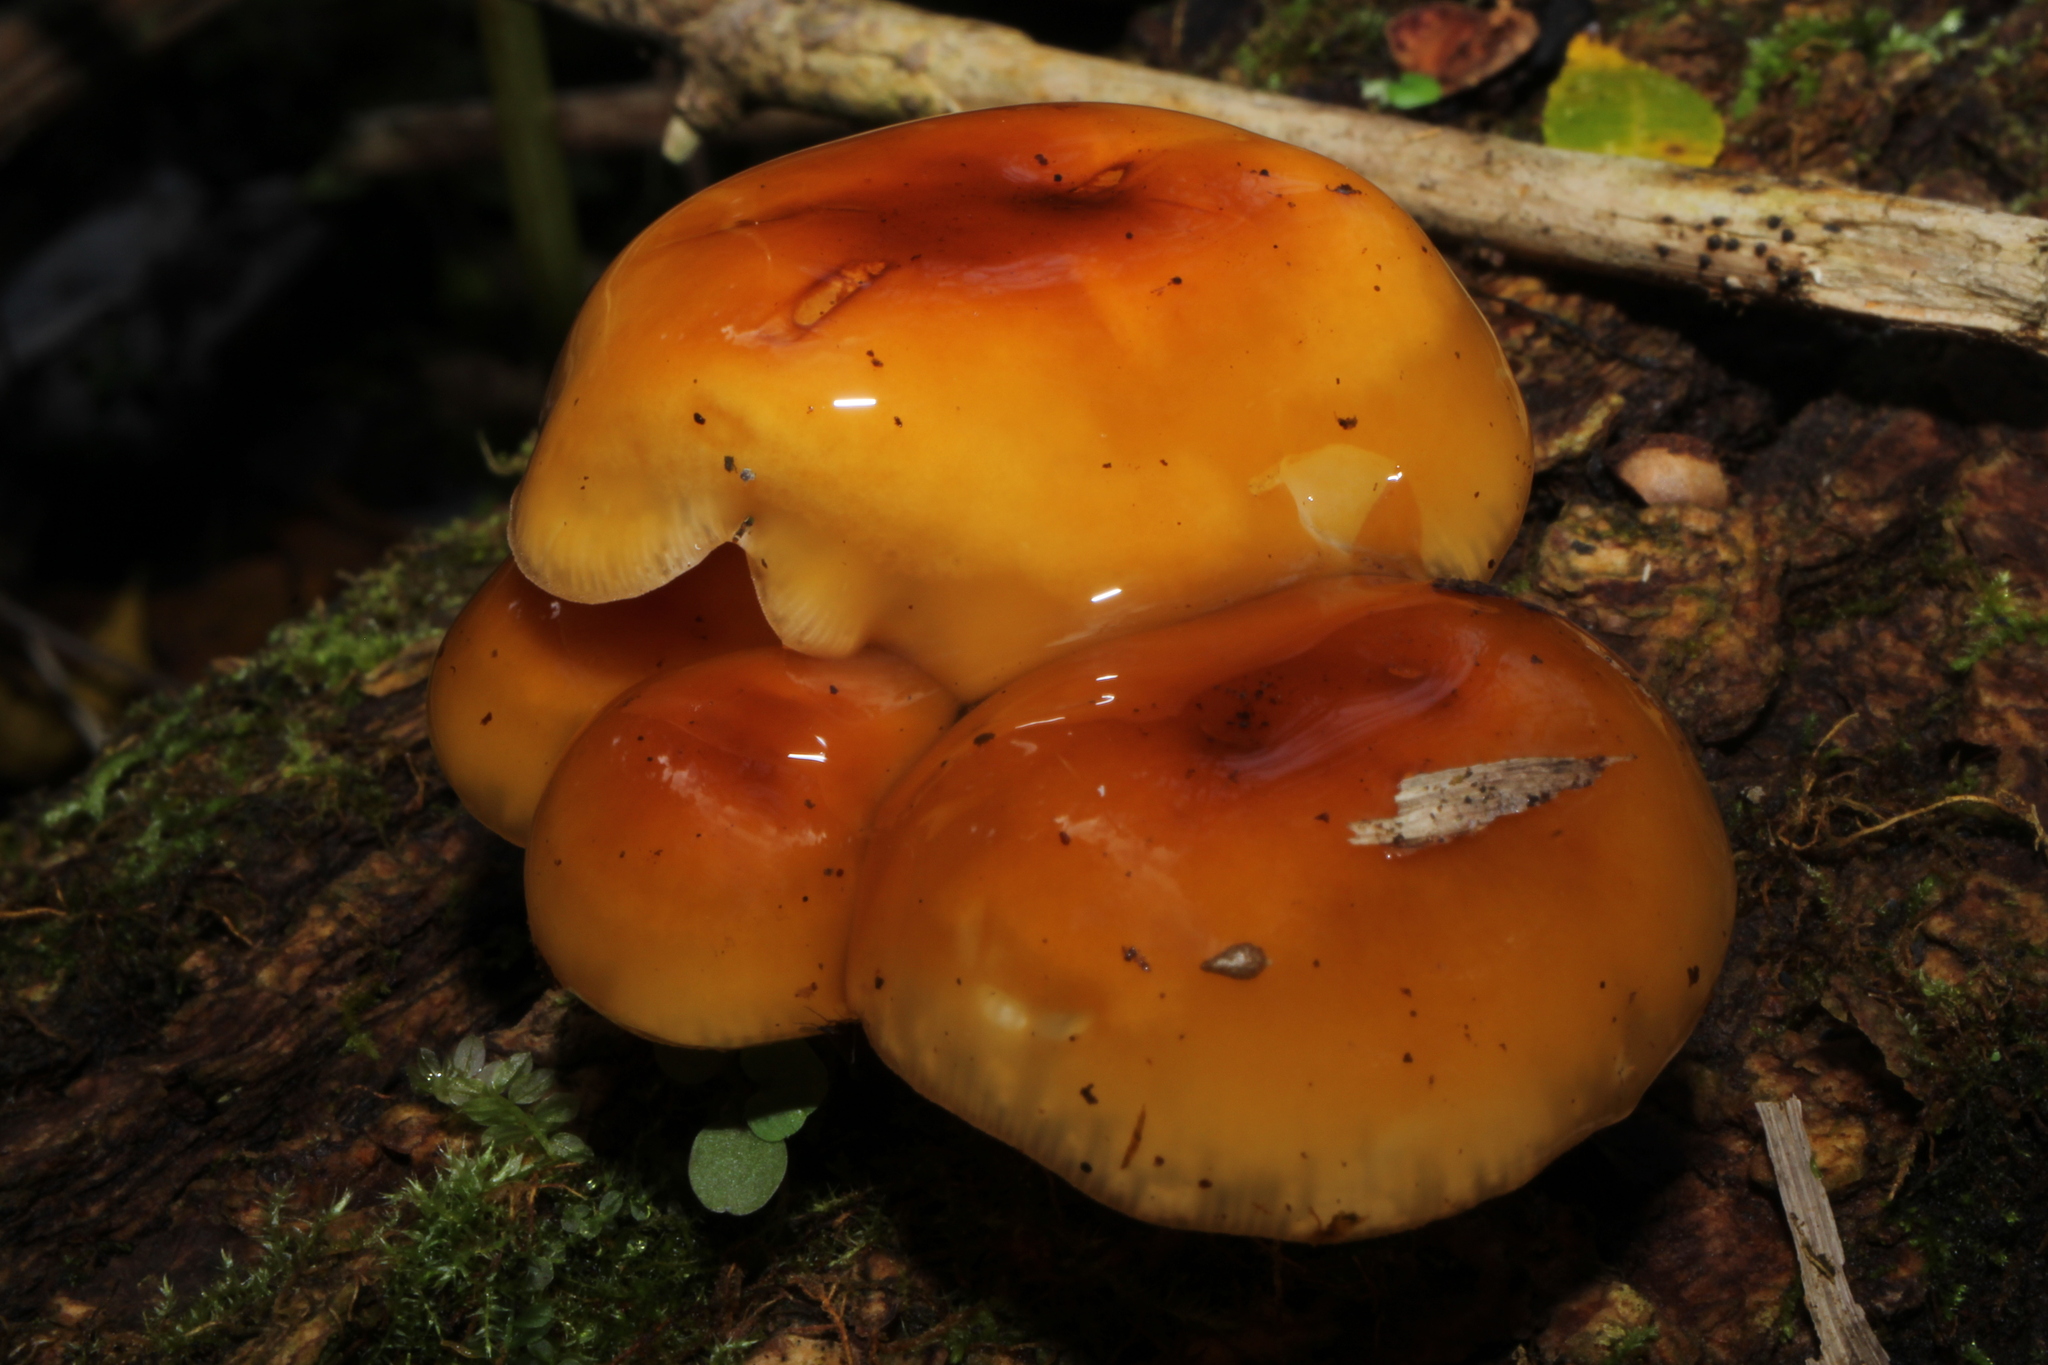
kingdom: Fungi
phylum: Basidiomycota
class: Agaricomycetes
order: Agaricales
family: Physalacriaceae
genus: Flammulina
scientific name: Flammulina velutipes
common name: Velvet shank
